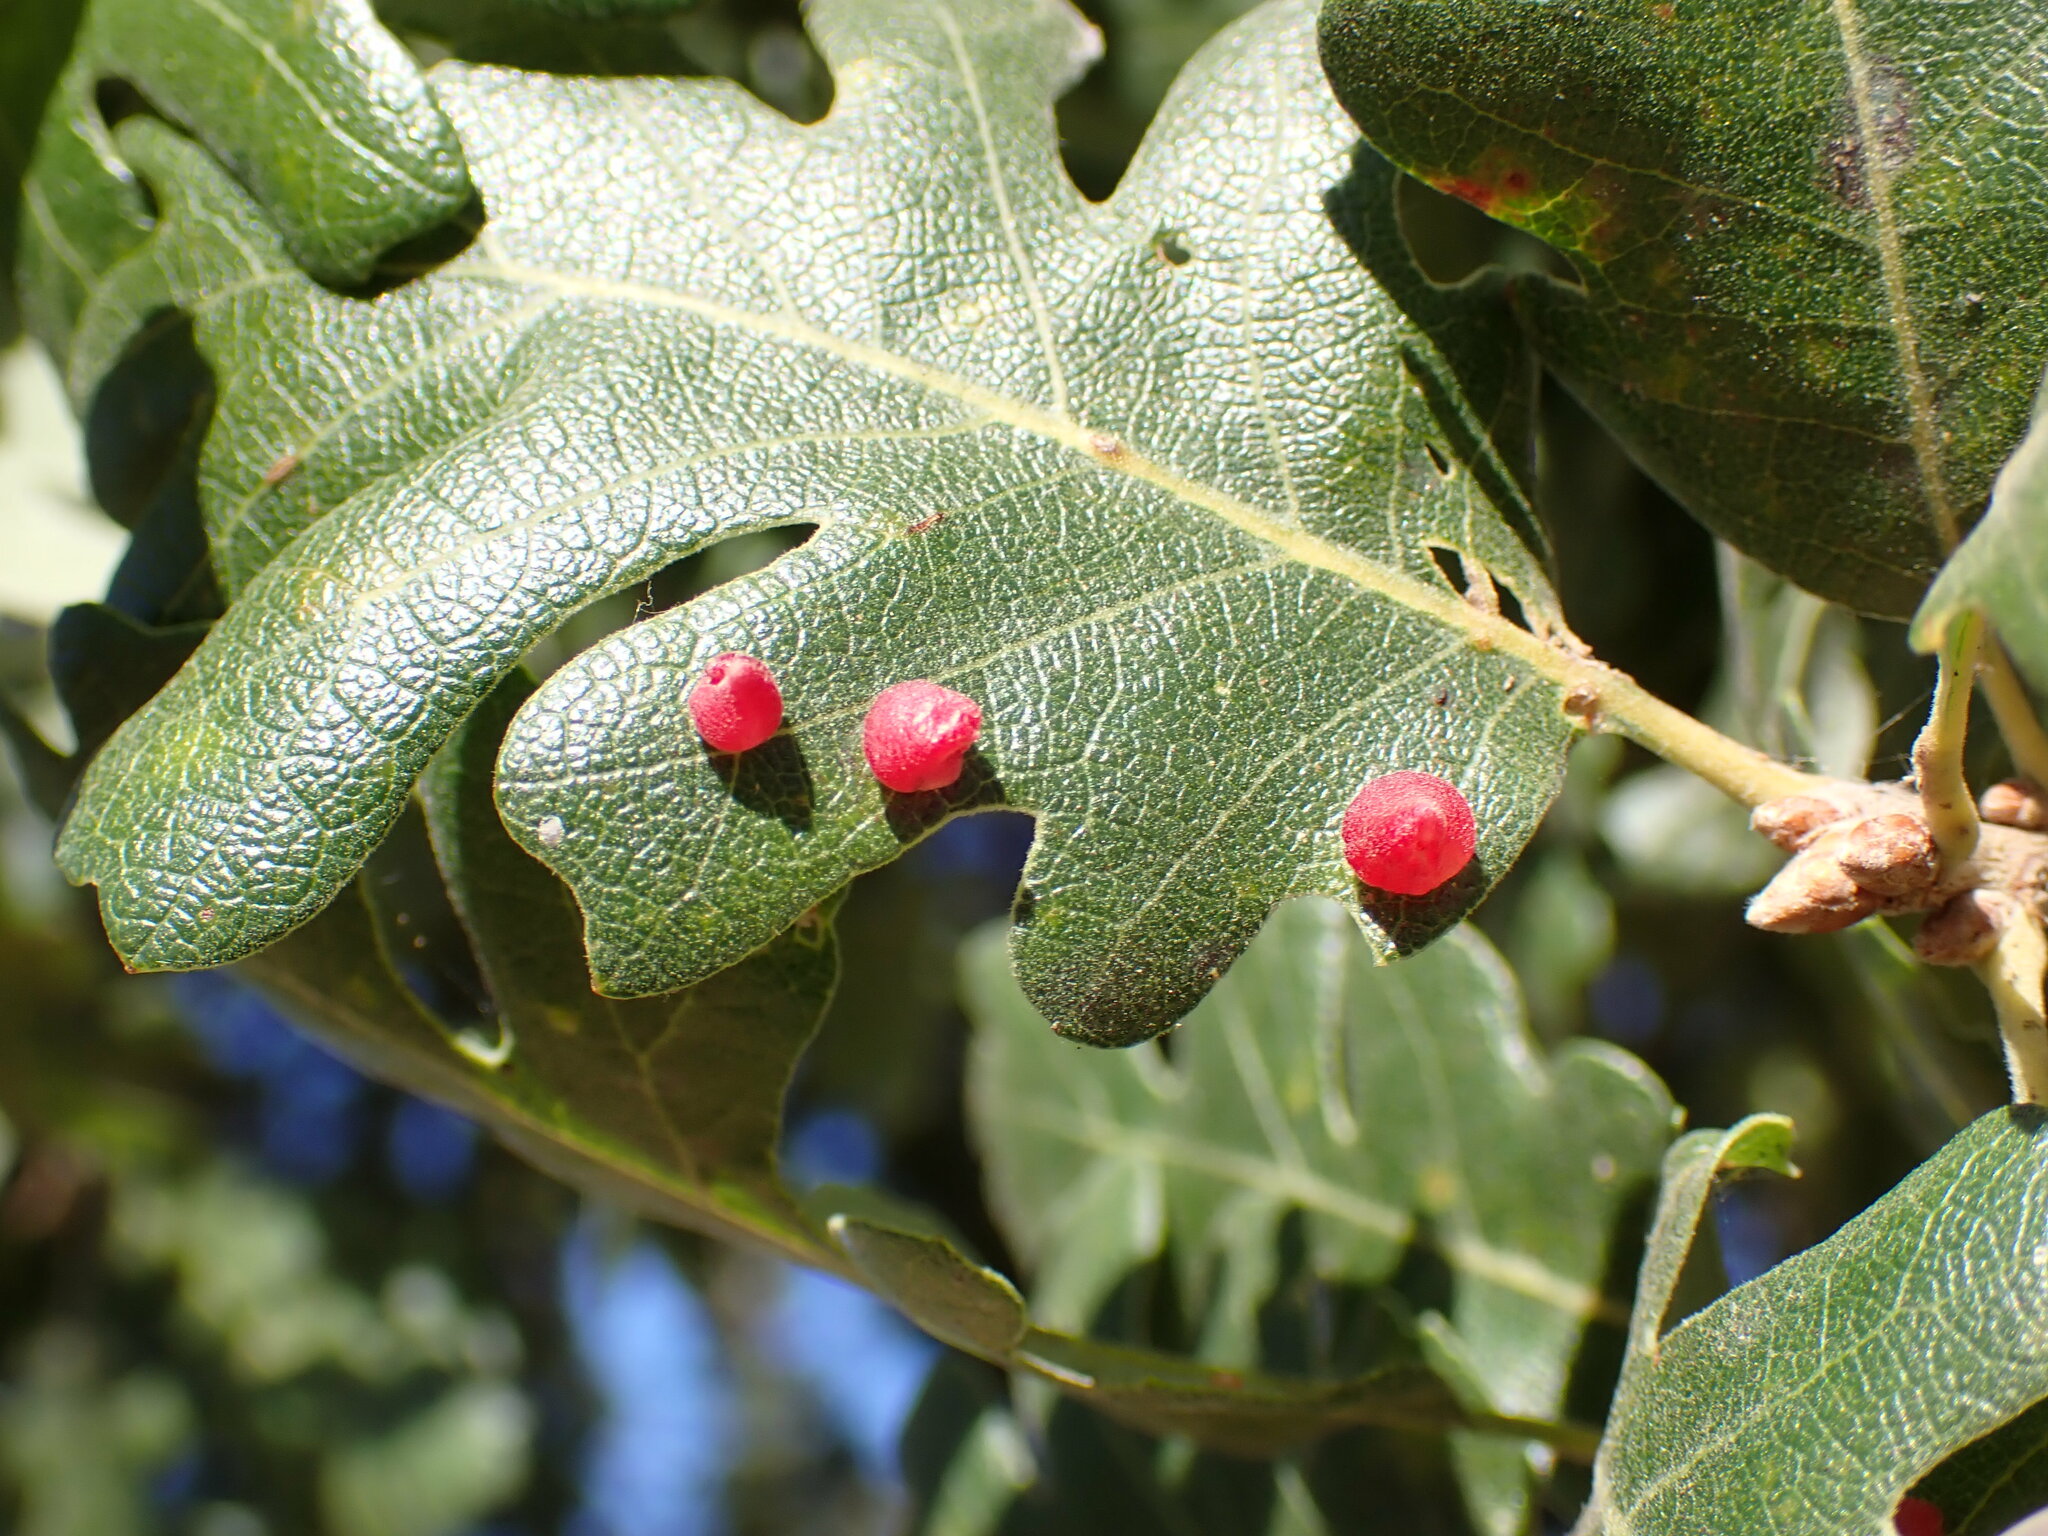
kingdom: Animalia
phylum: Arthropoda
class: Insecta
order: Hymenoptera
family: Cynipidae
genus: Andricus
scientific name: Andricus
